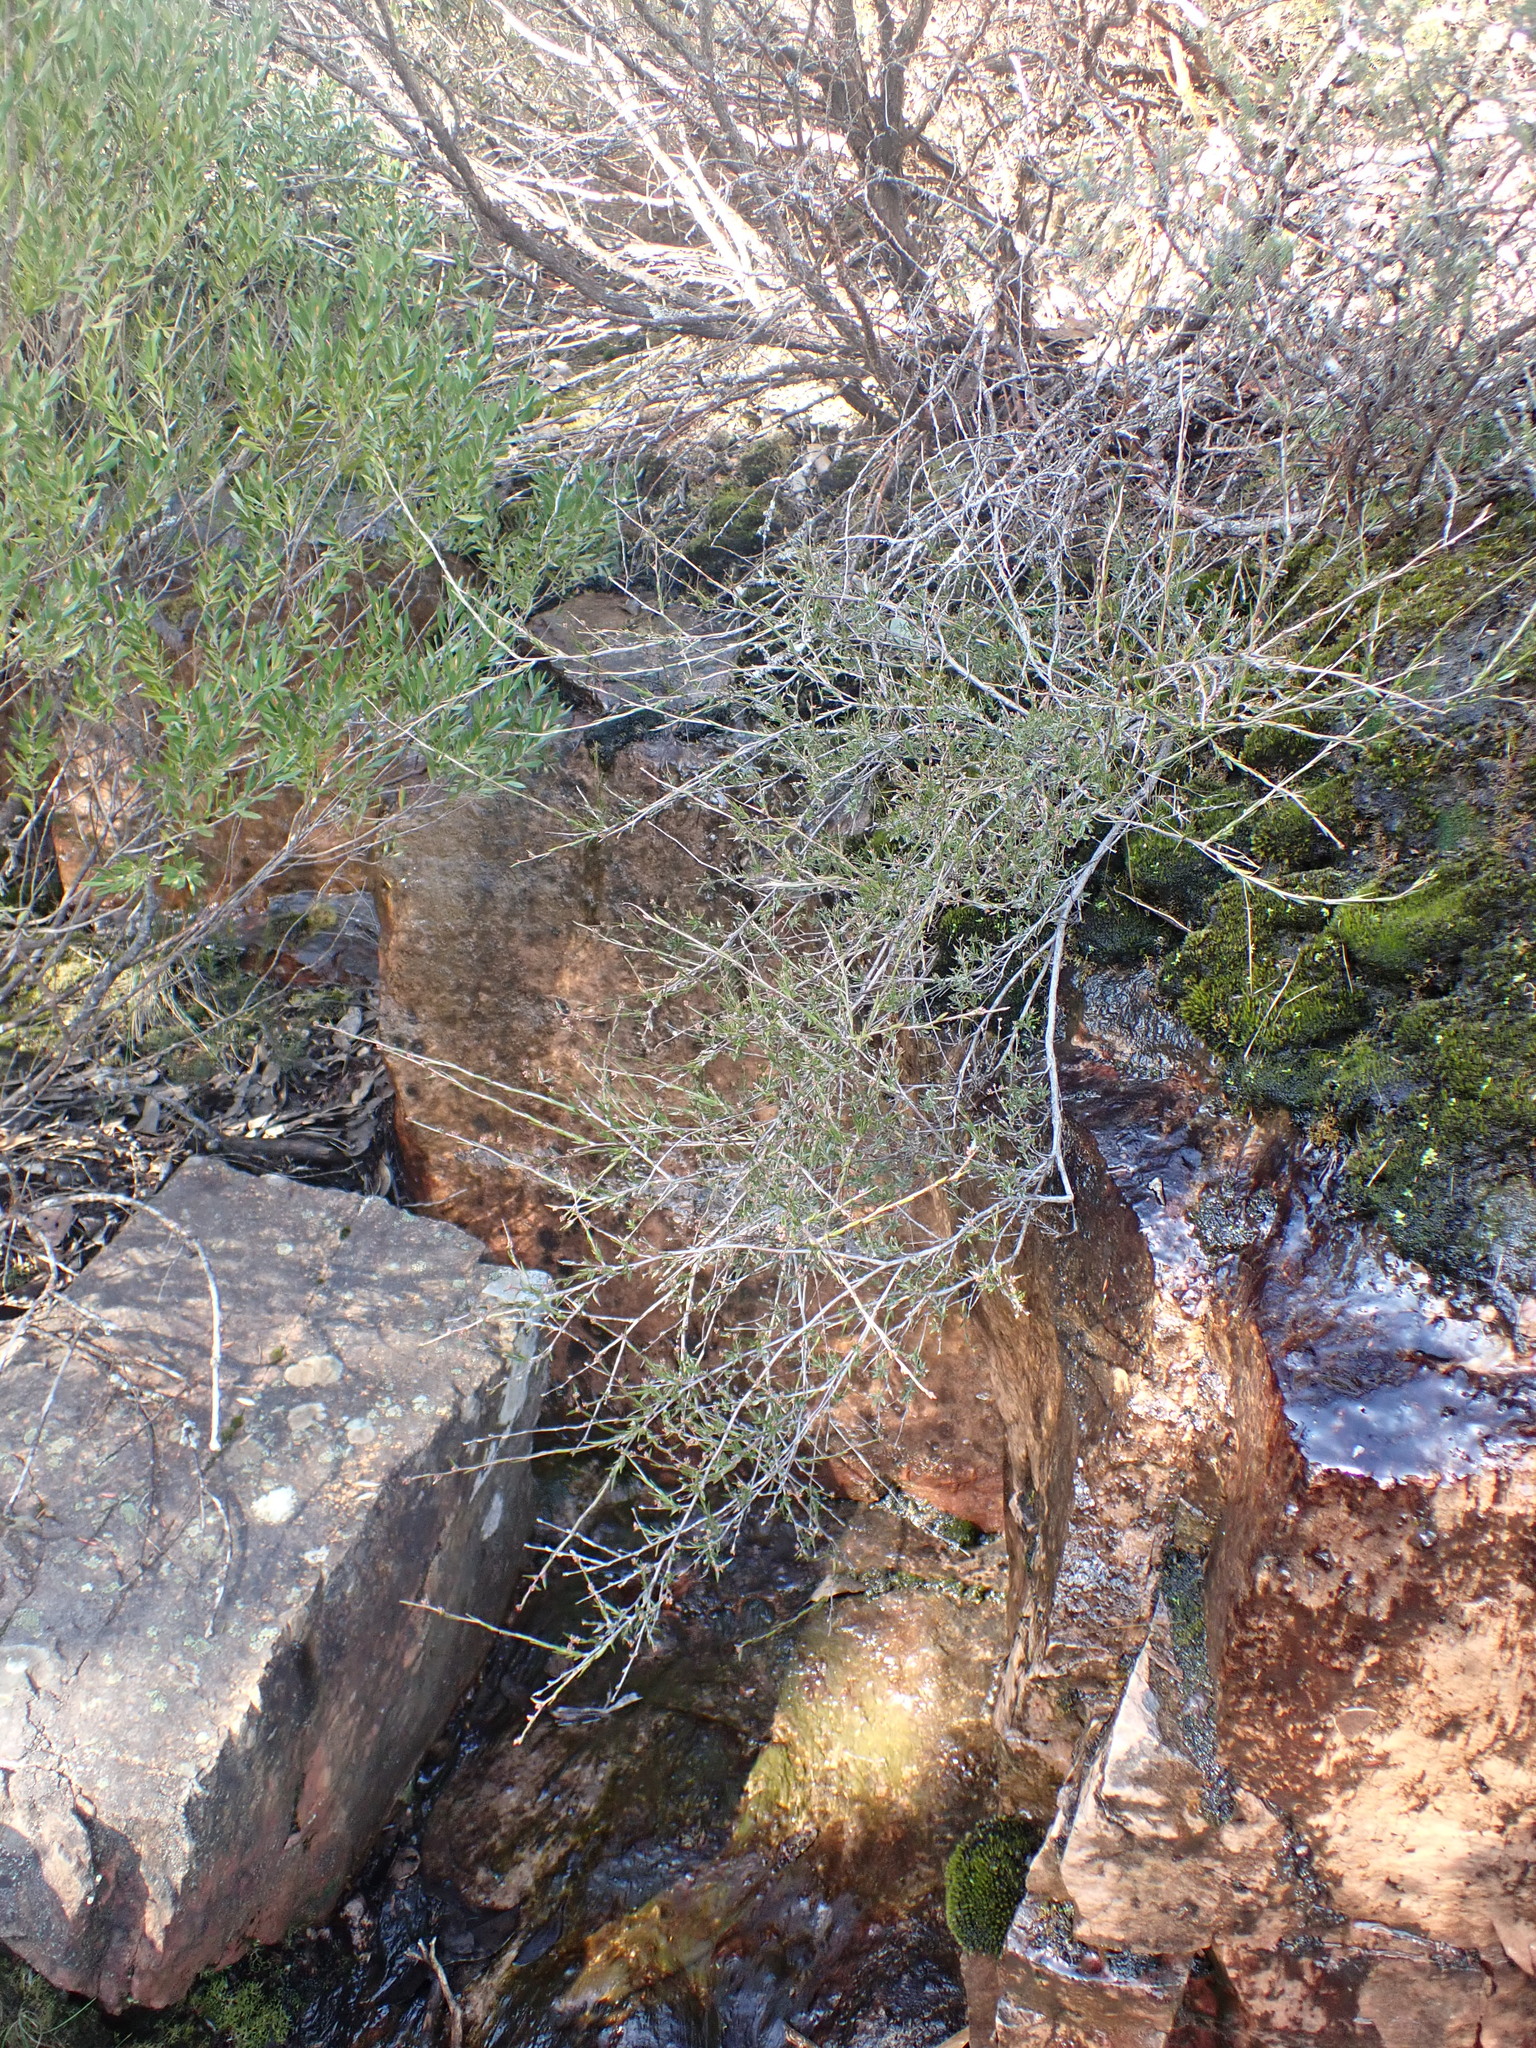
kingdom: Plantae
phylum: Tracheophyta
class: Magnoliopsida
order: Ericales
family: Ericaceae
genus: Leucopogon
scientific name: Leucopogon virgatus
